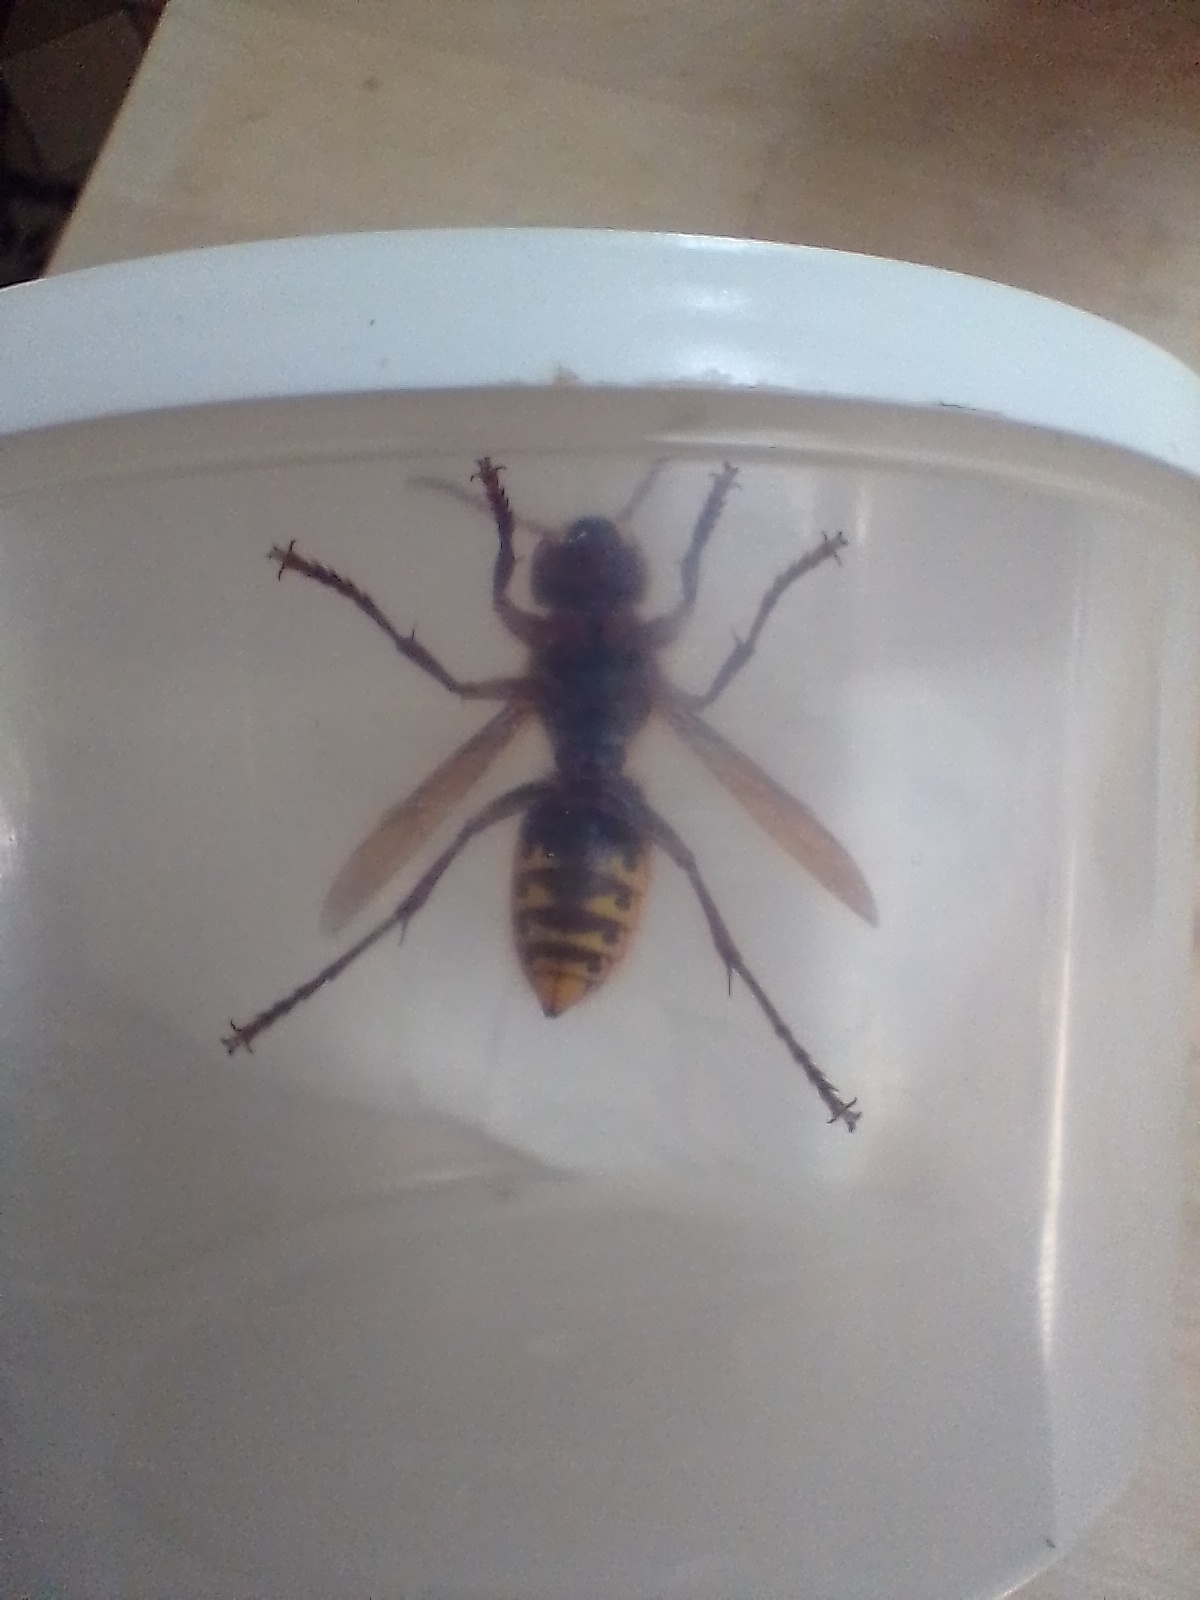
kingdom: Animalia
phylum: Arthropoda
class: Insecta
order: Hymenoptera
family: Vespidae
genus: Vespa
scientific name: Vespa crabro
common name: Hornet
